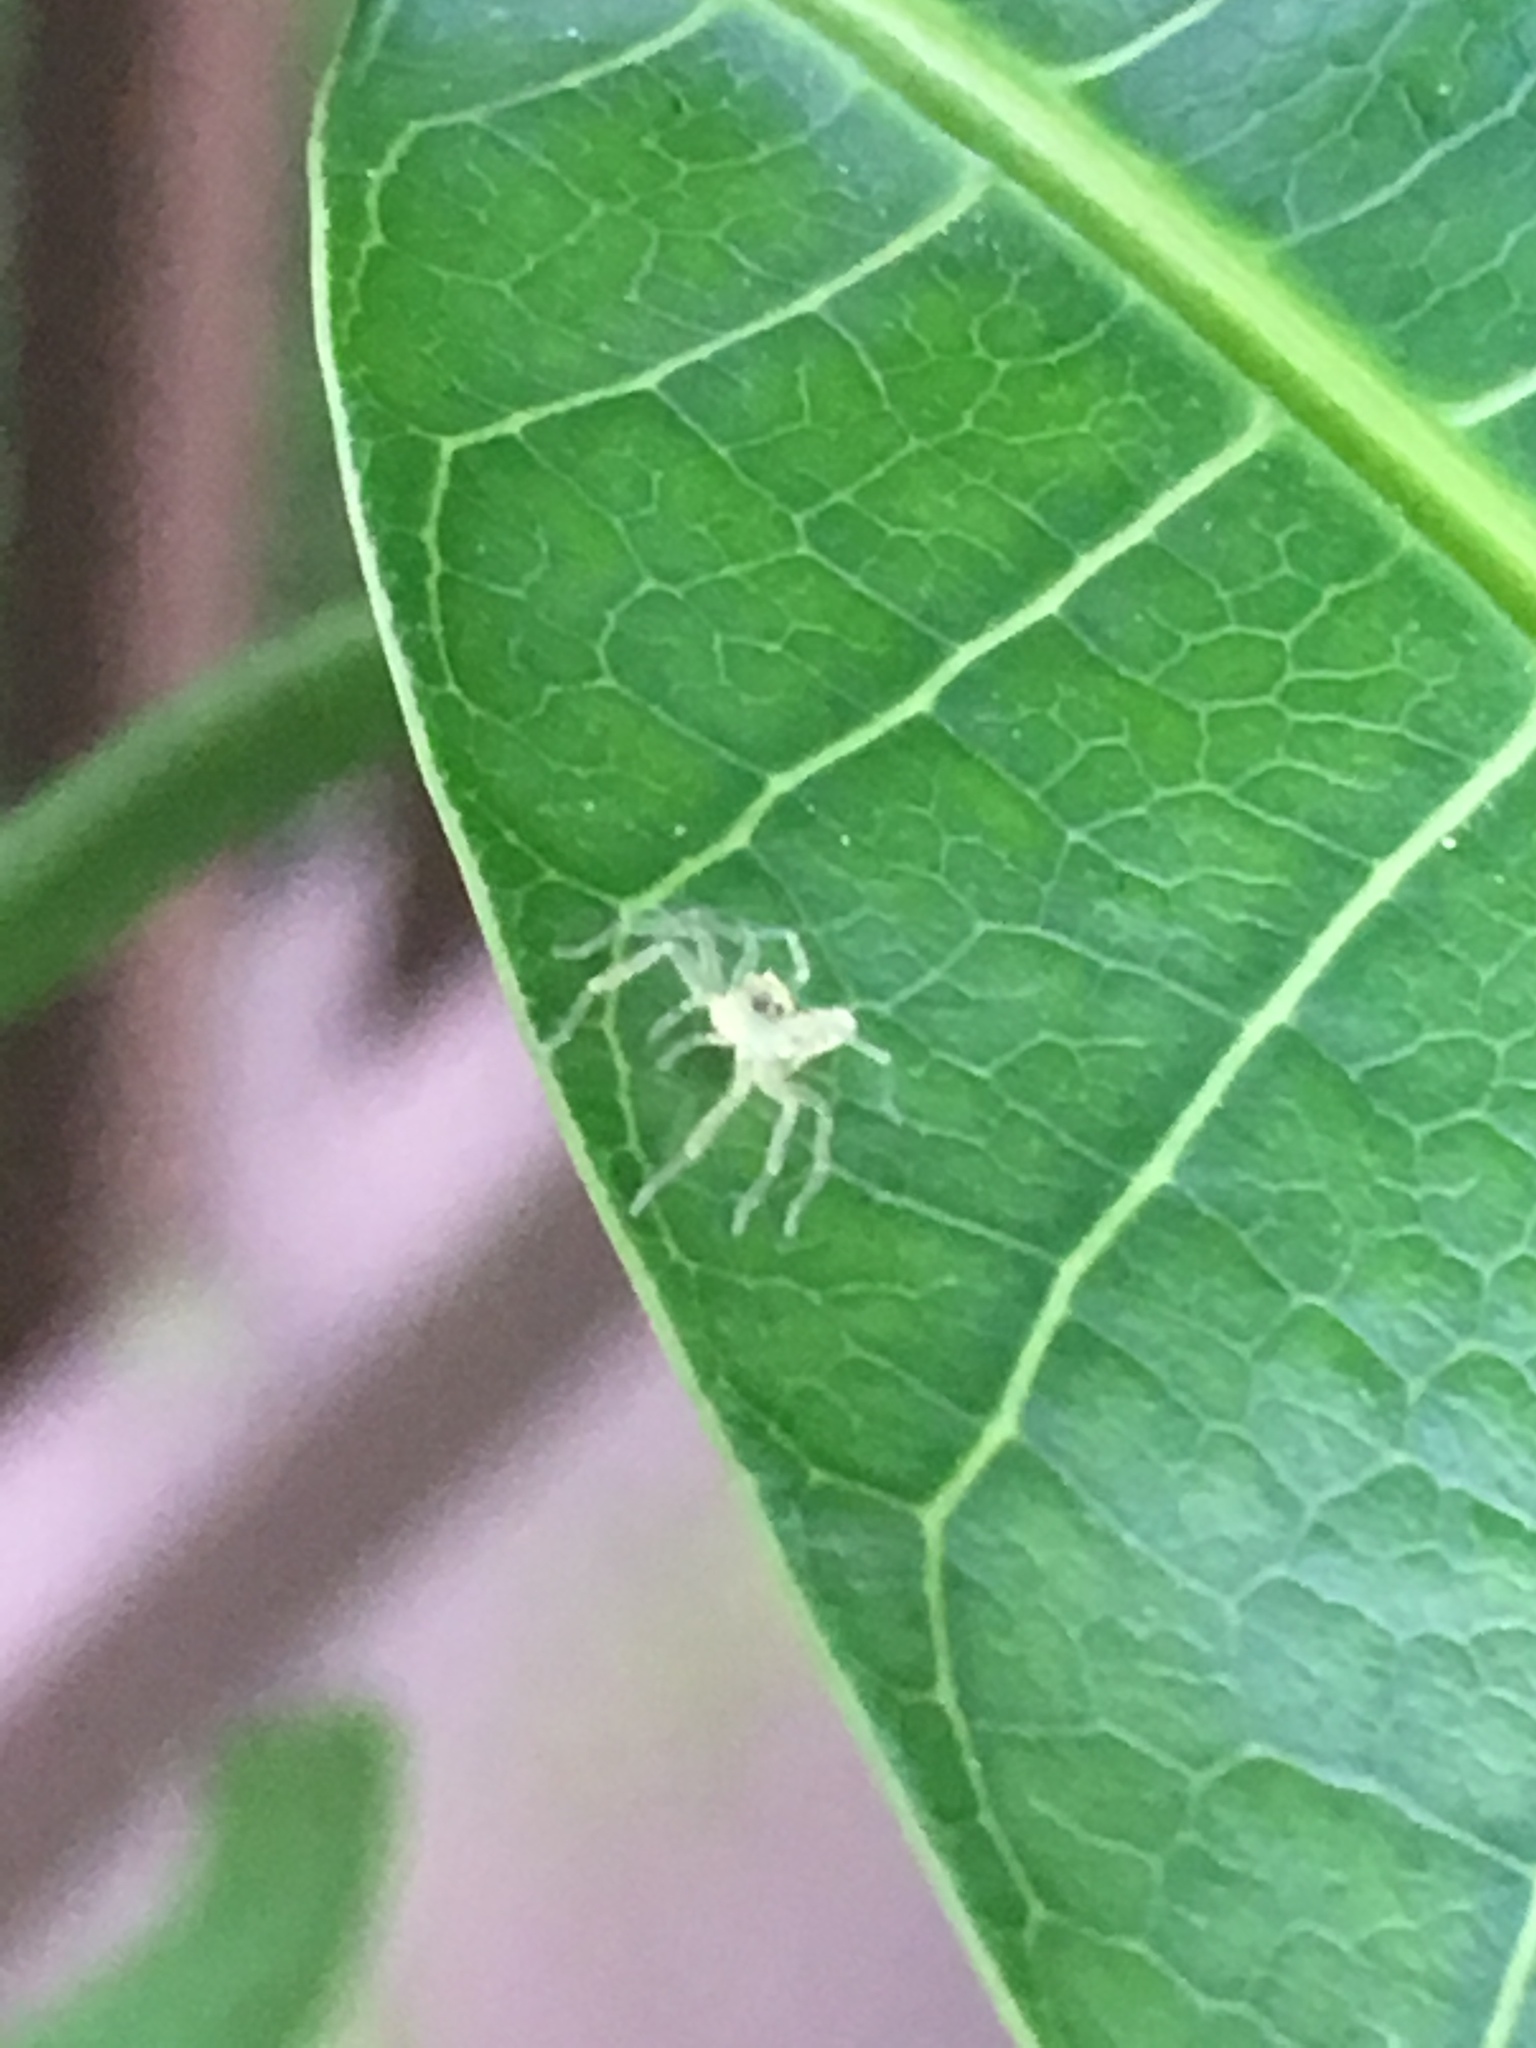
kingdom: Animalia
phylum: Arthropoda
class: Arachnida
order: Araneae
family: Salticidae
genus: Lyssomanes
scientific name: Lyssomanes viridis
